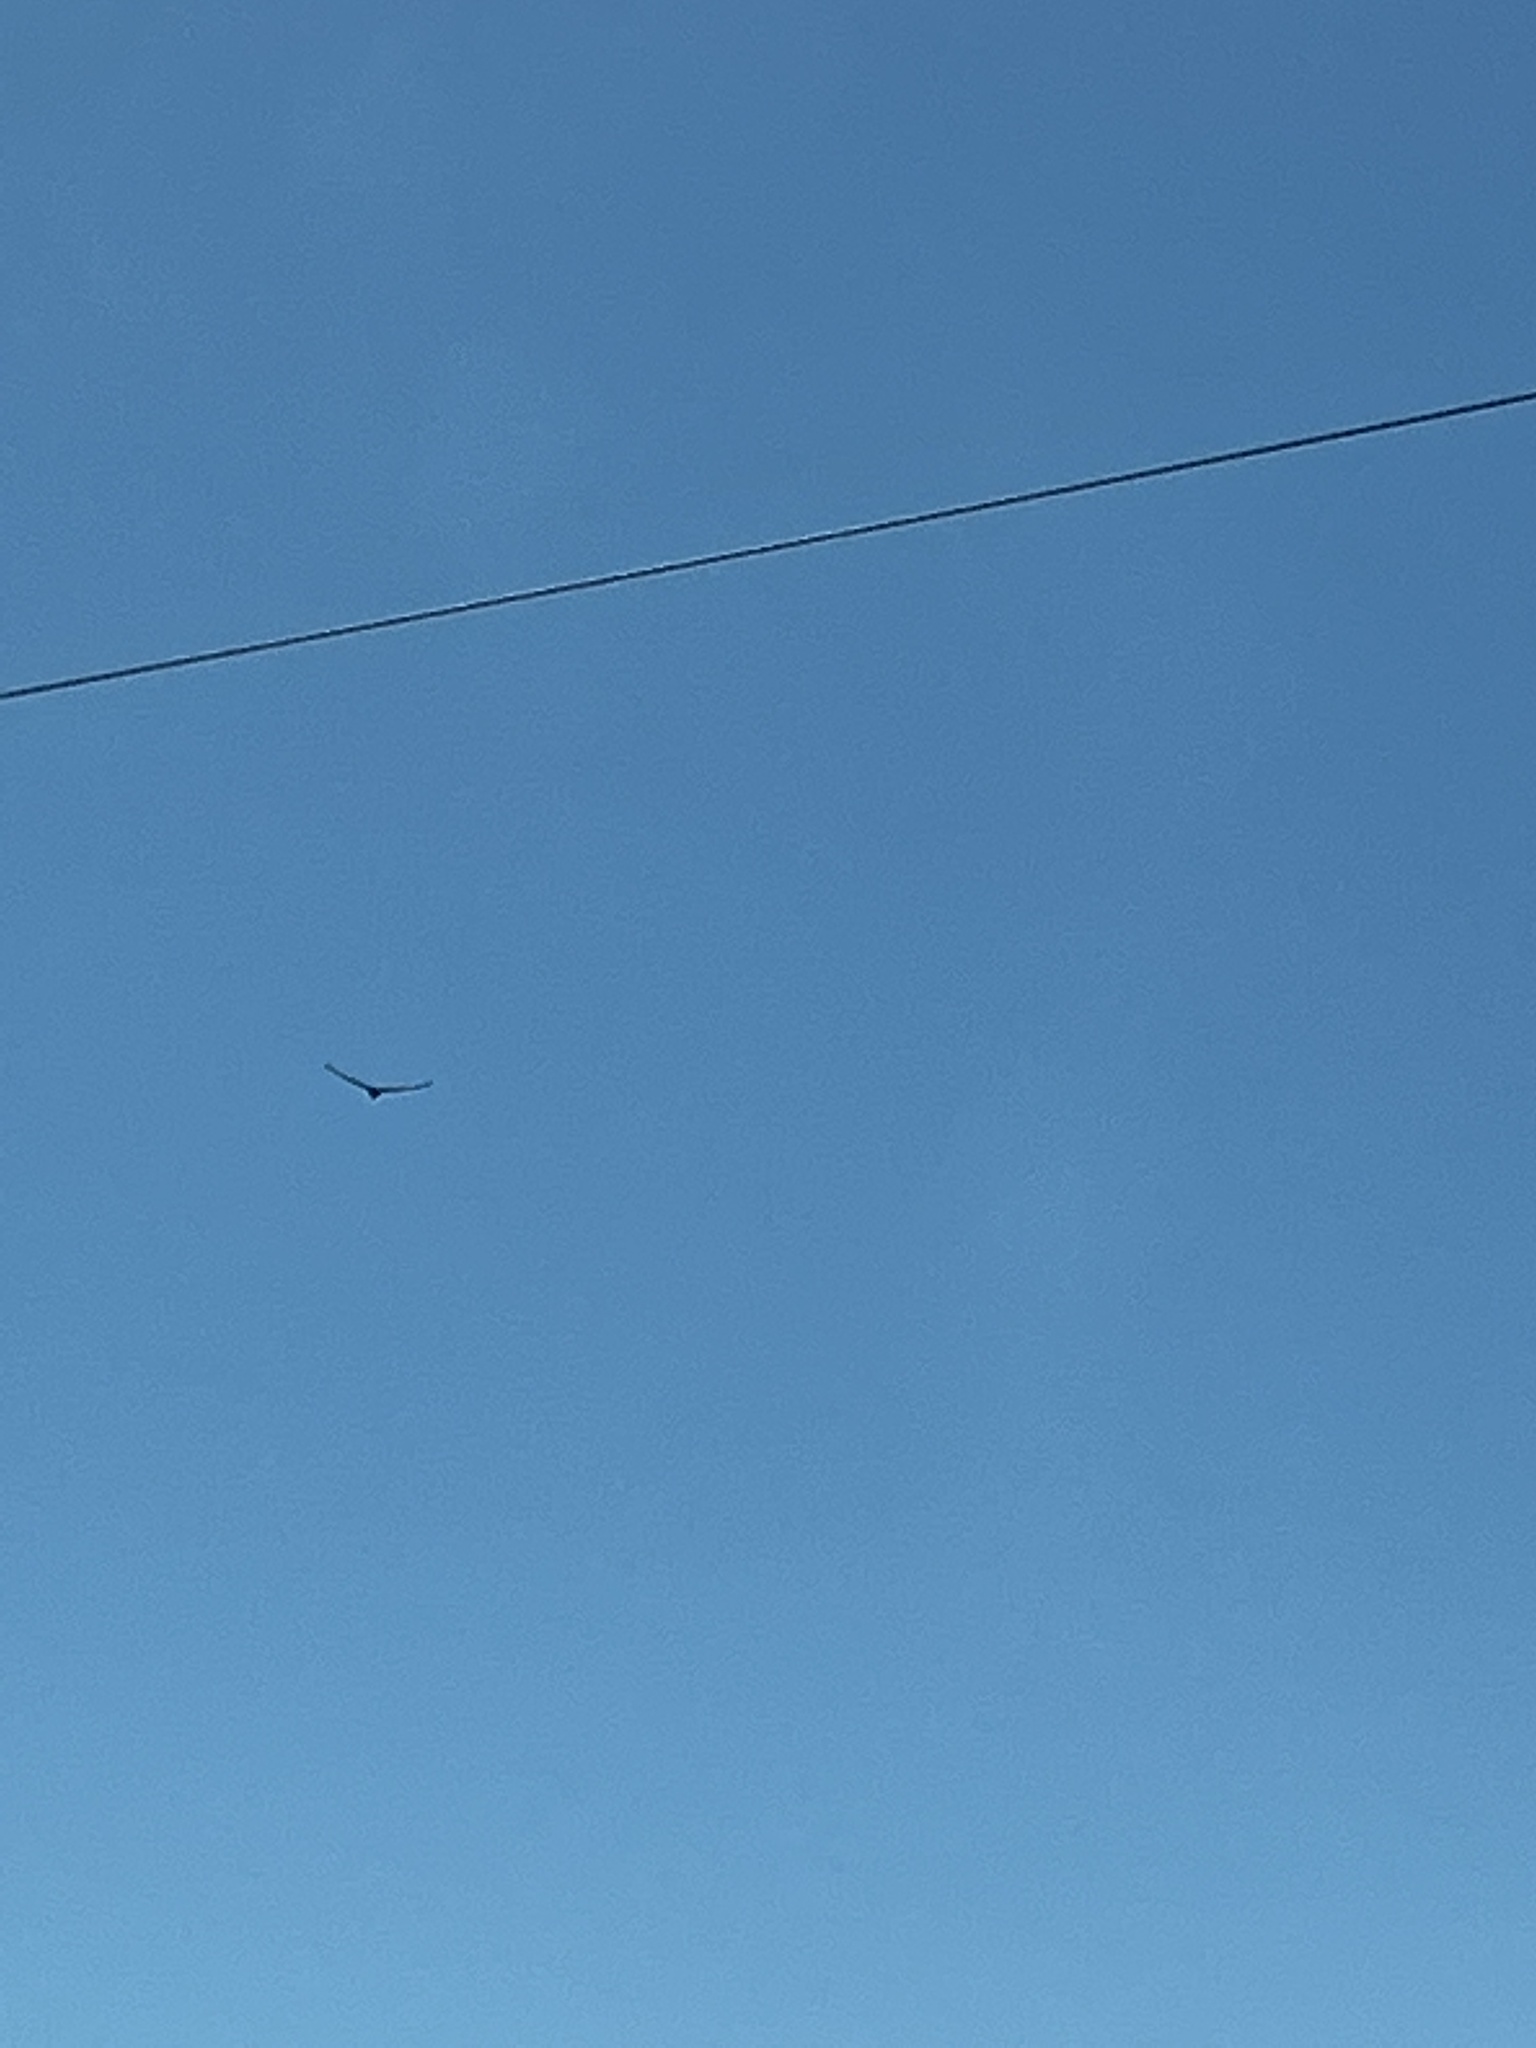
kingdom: Animalia
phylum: Chordata
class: Aves
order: Accipitriformes
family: Cathartidae
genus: Cathartes
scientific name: Cathartes aura
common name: Turkey vulture
